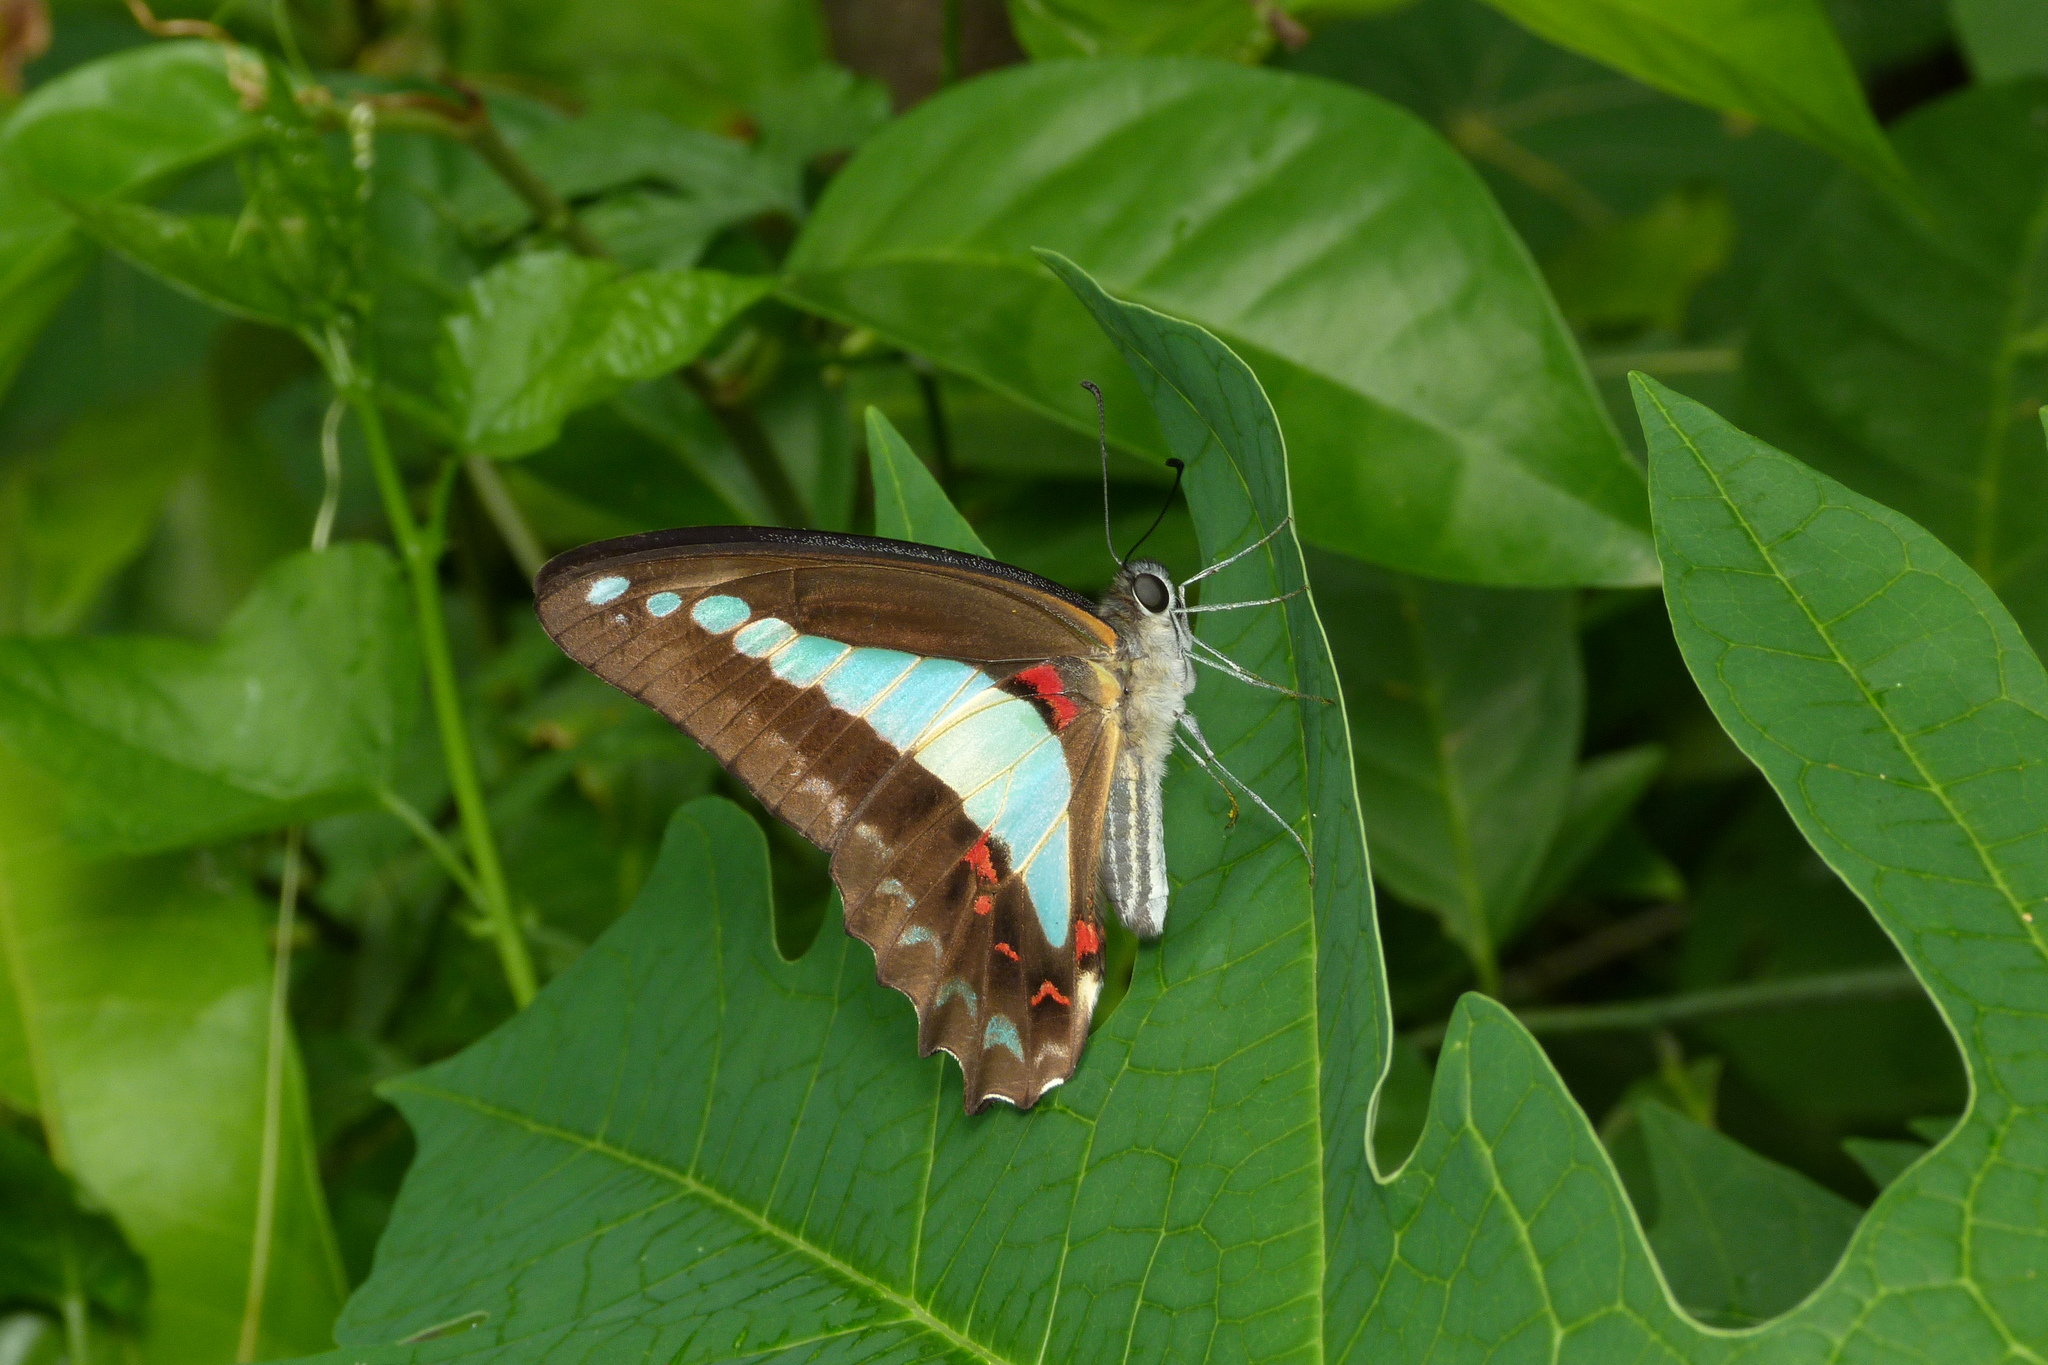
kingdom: Animalia
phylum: Arthropoda
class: Insecta
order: Lepidoptera
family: Papilionidae
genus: Graphium
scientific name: Graphium
